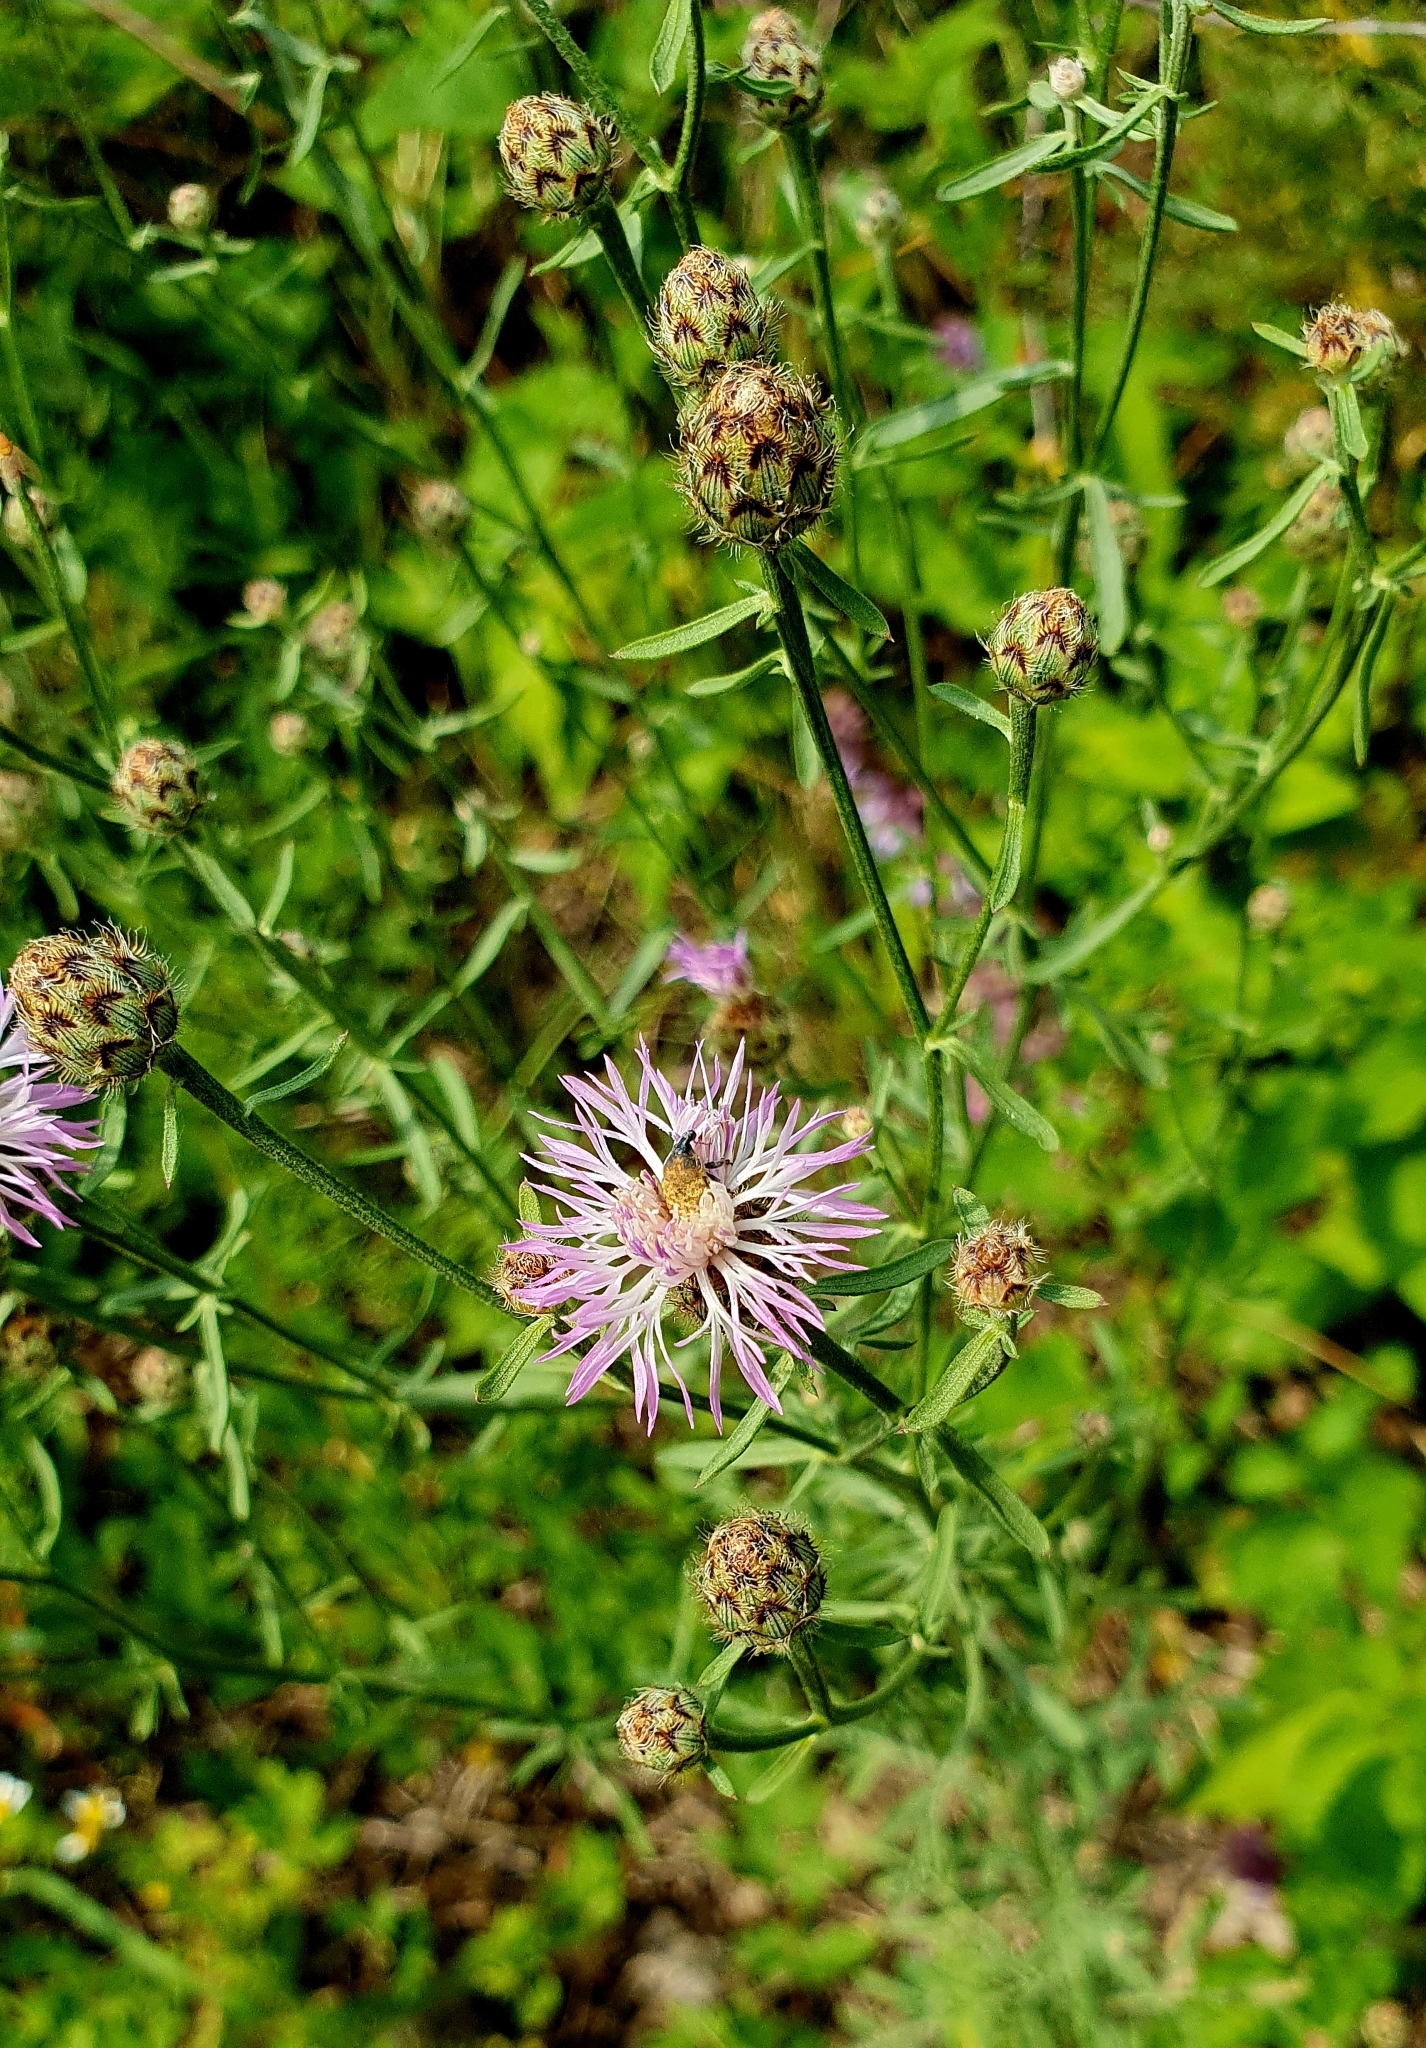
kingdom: Plantae
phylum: Tracheophyta
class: Magnoliopsida
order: Asterales
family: Asteraceae
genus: Centaurea
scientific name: Centaurea stoebe
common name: Spotted knapweed
